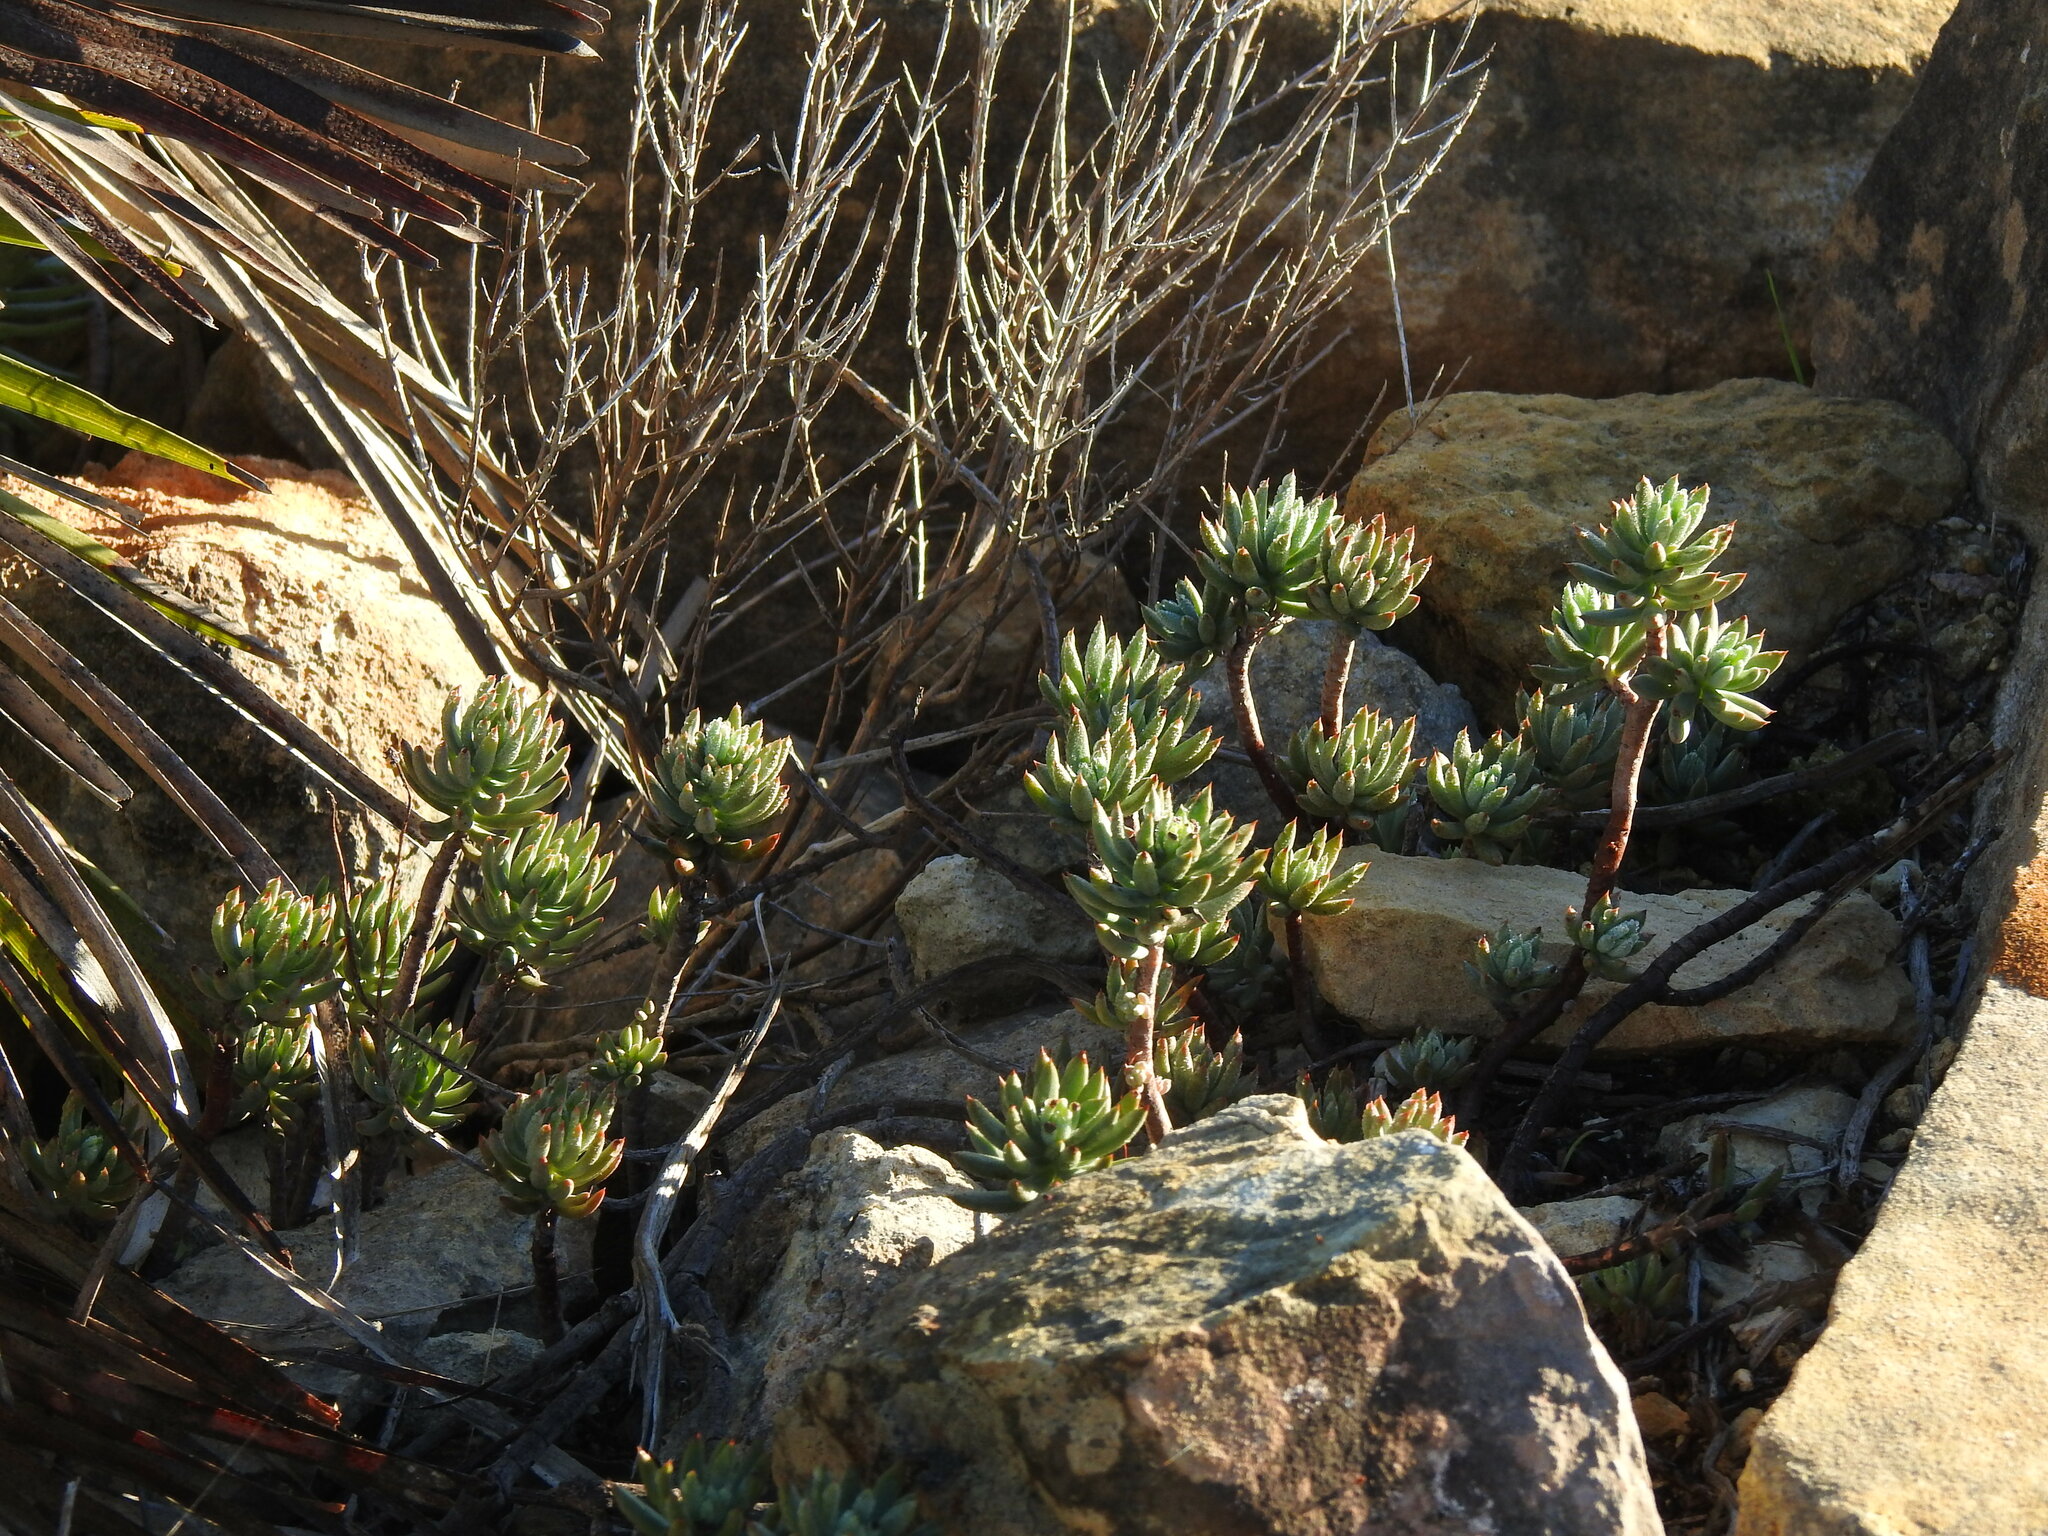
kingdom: Plantae
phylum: Tracheophyta
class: Magnoliopsida
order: Saxifragales
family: Crassulaceae
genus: Petrosedum
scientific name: Petrosedum sediforme
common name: Pale stonecrop
